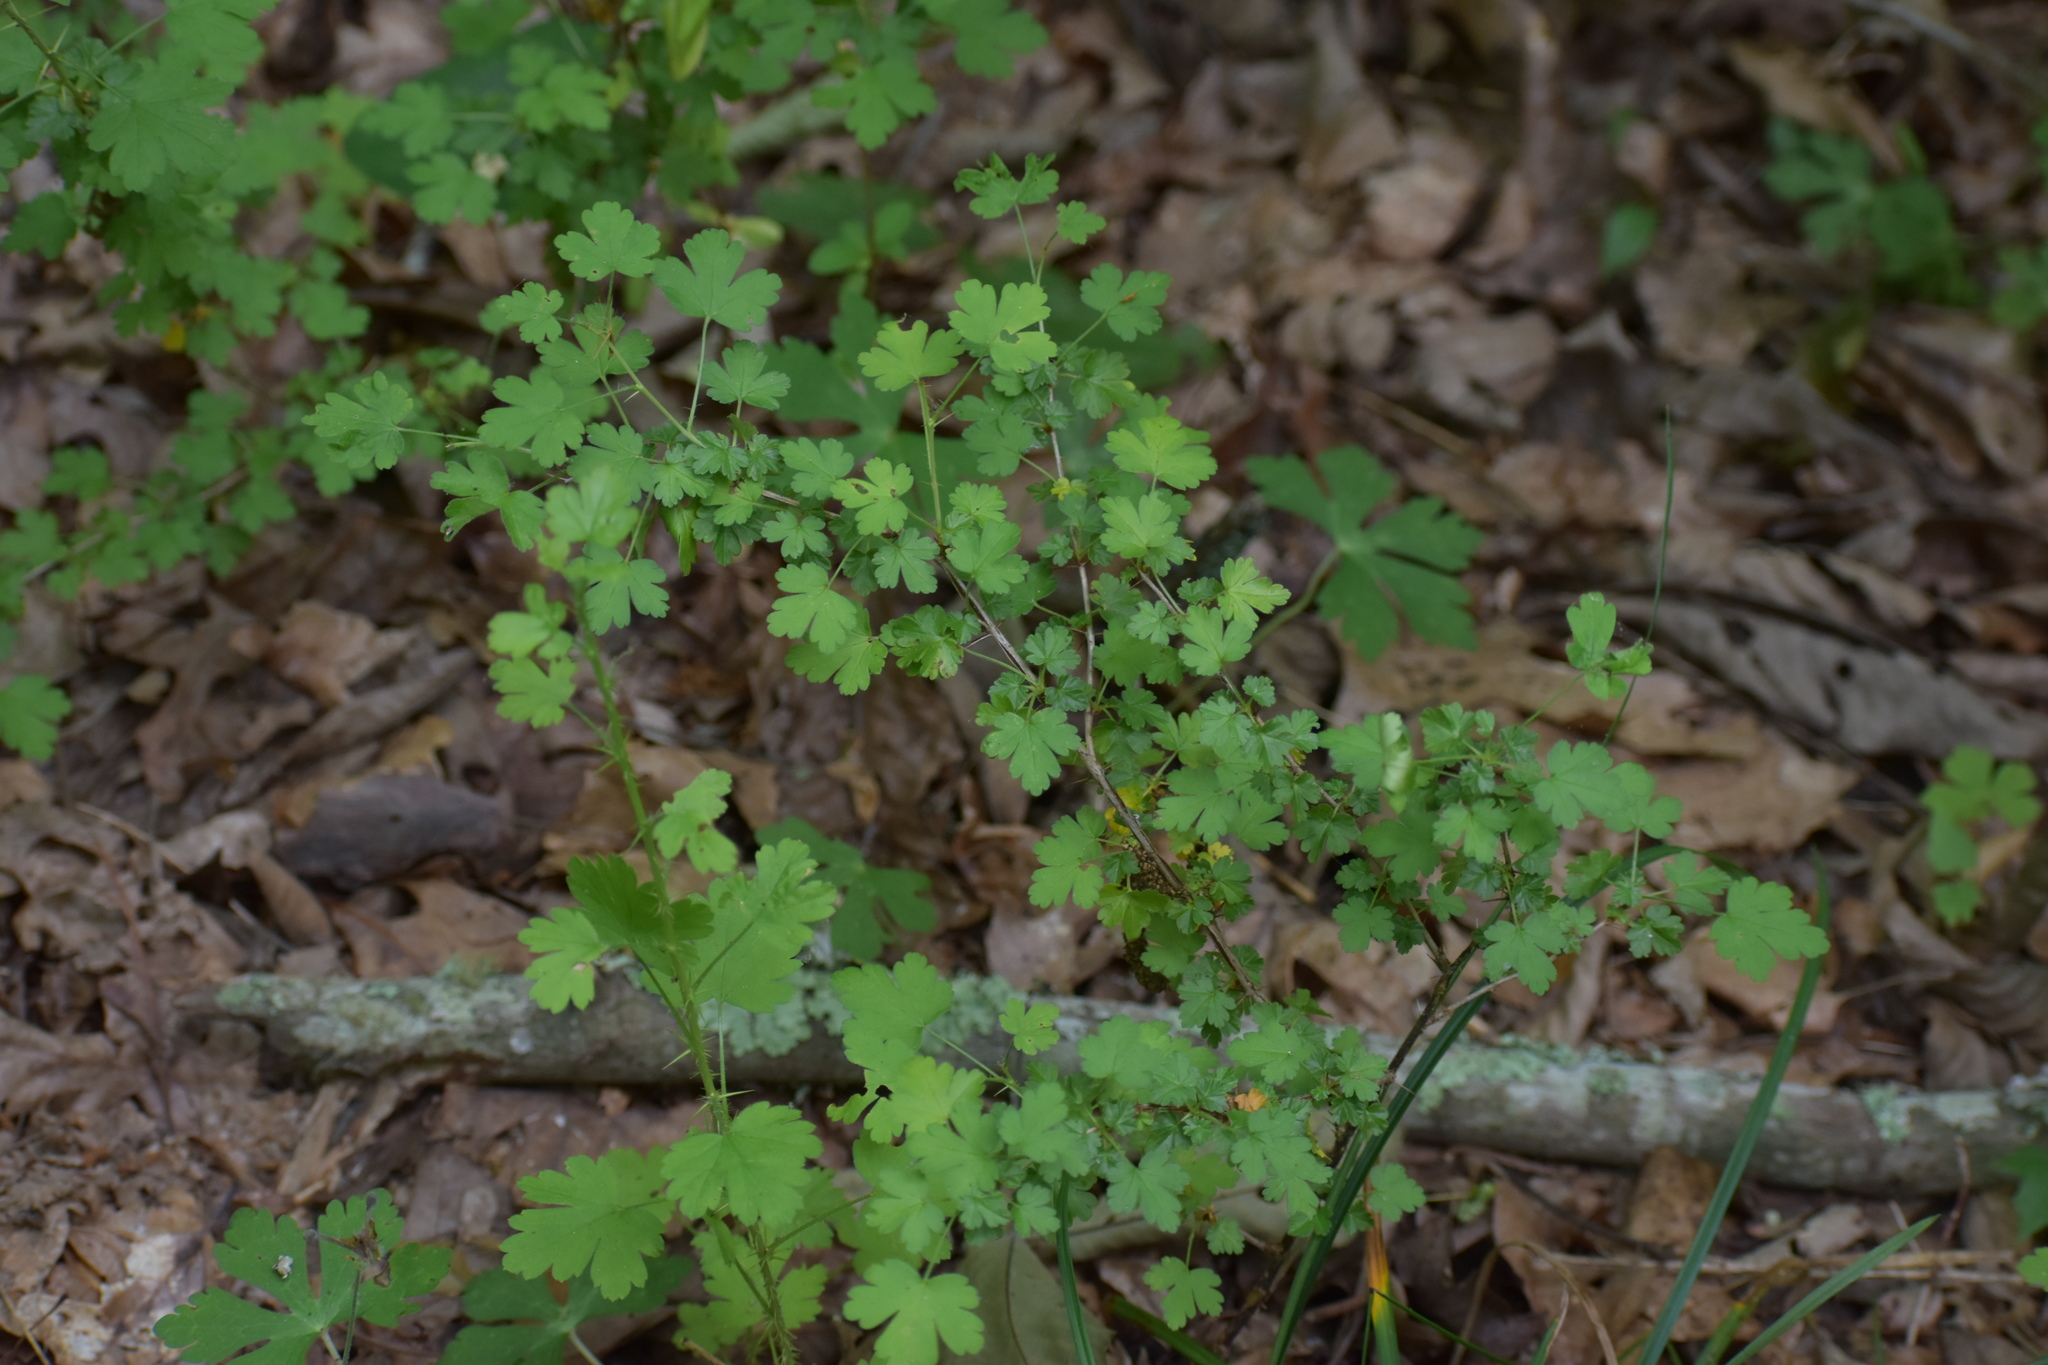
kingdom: Plantae
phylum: Tracheophyta
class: Magnoliopsida
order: Saxifragales
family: Grossulariaceae
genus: Ribes
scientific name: Ribes echinellum
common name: Miccosukee gooseberry
